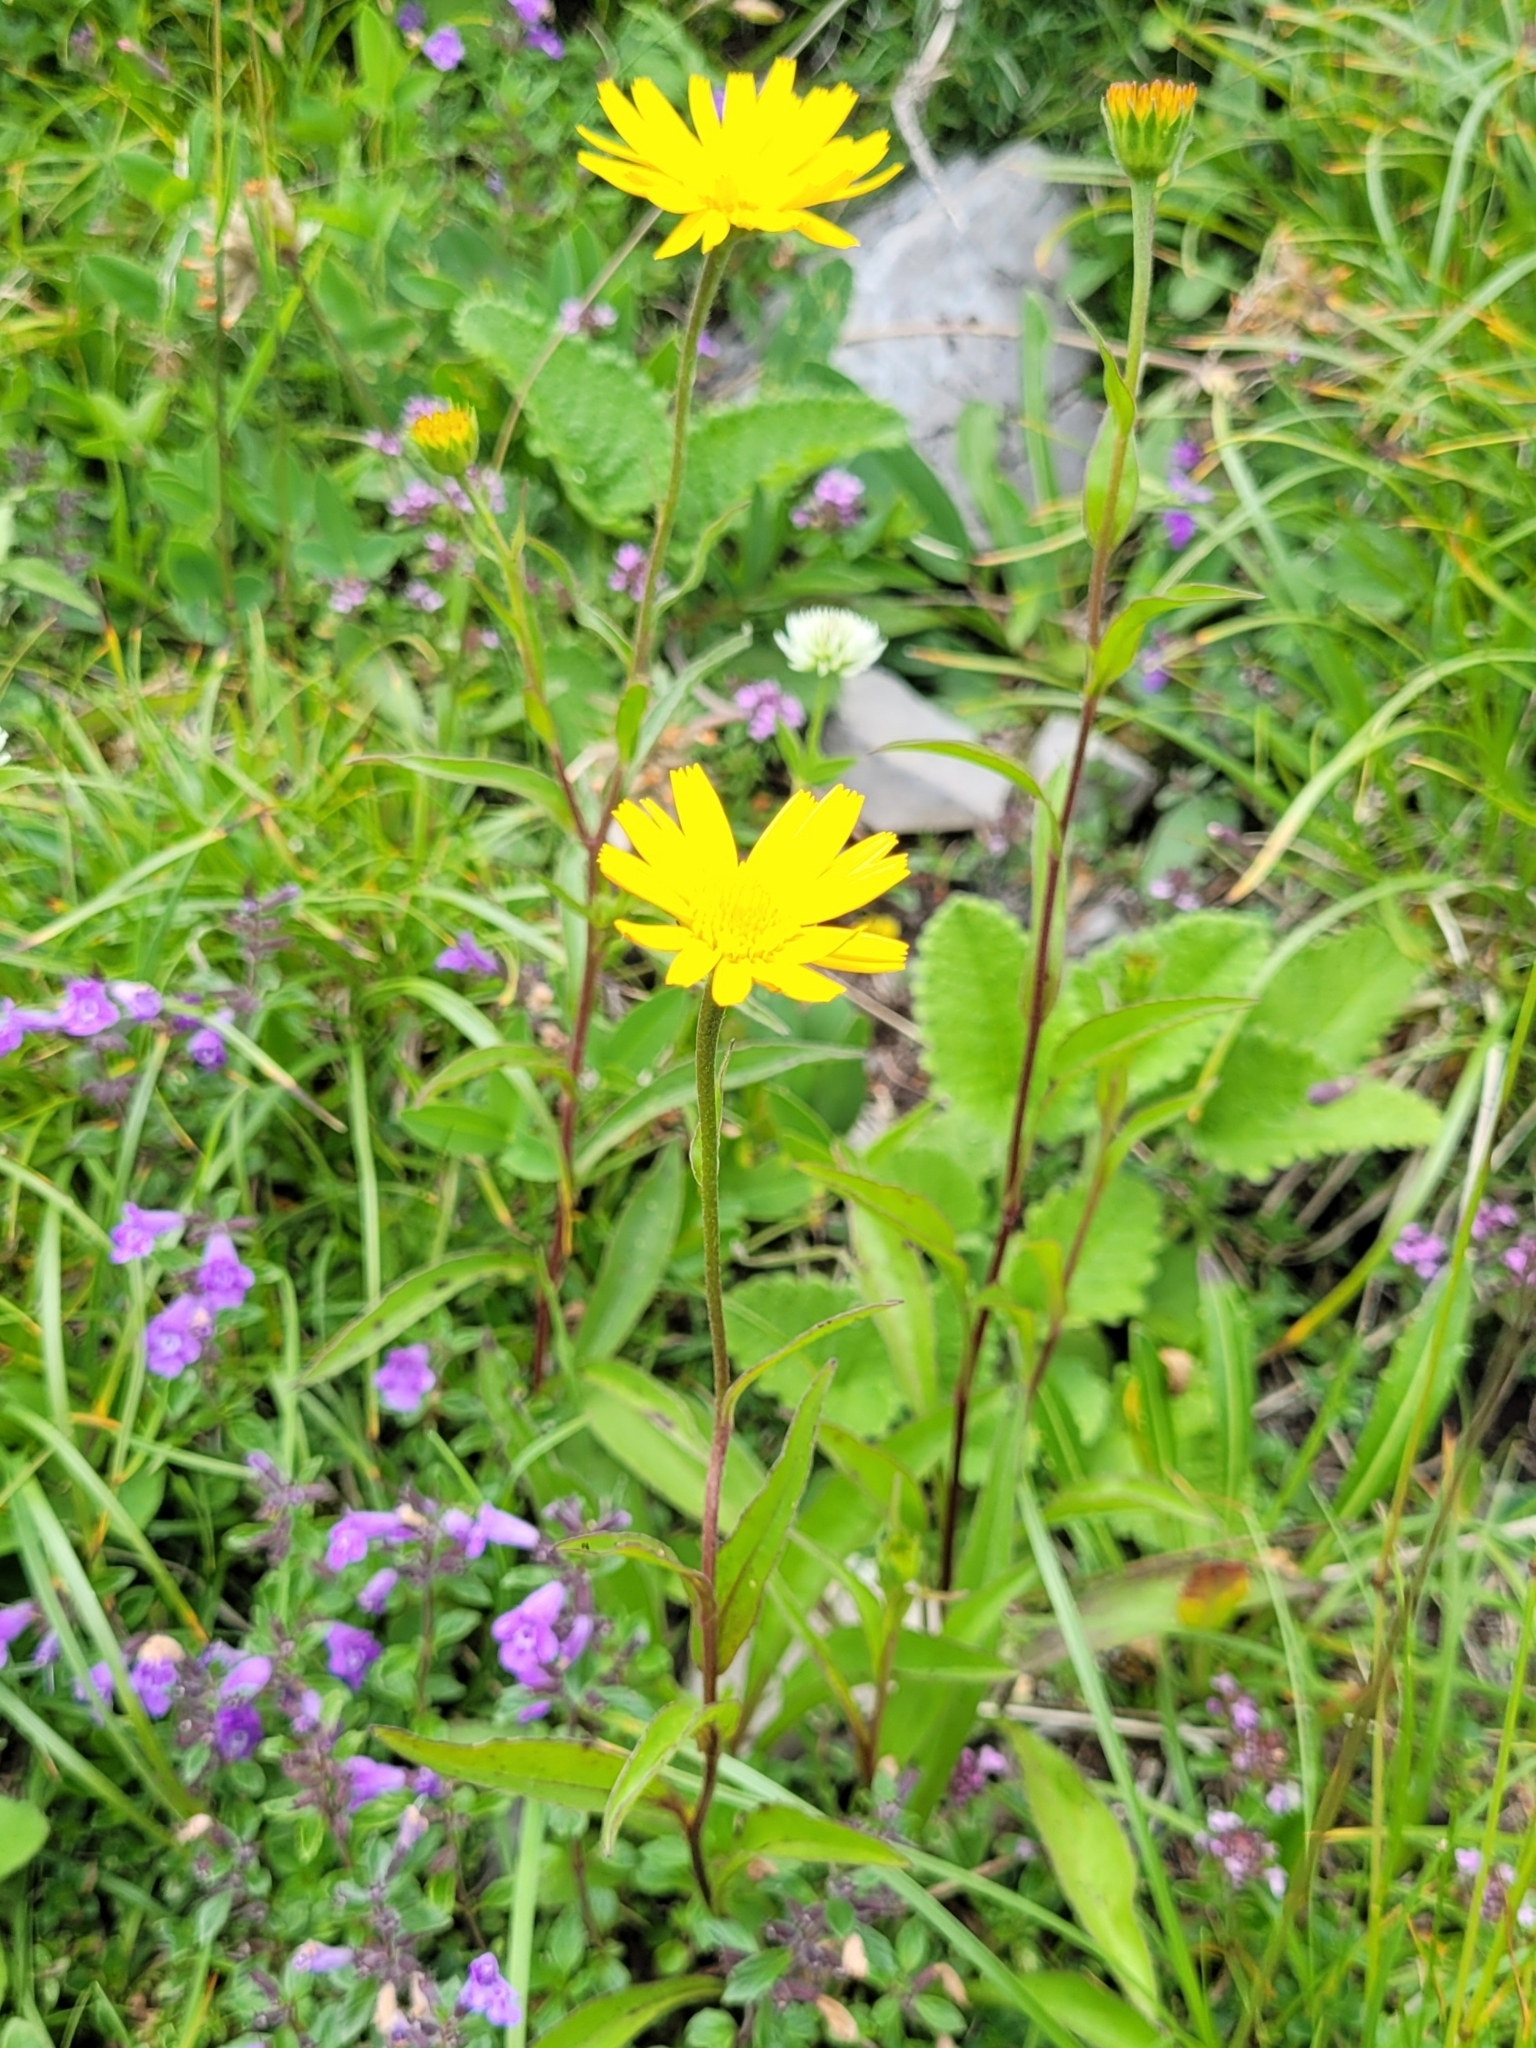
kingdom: Plantae
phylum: Tracheophyta
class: Magnoliopsida
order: Asterales
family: Asteraceae
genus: Buphthalmum
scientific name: Buphthalmum salicifolium
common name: Willow-leaved yellow-oxeye
